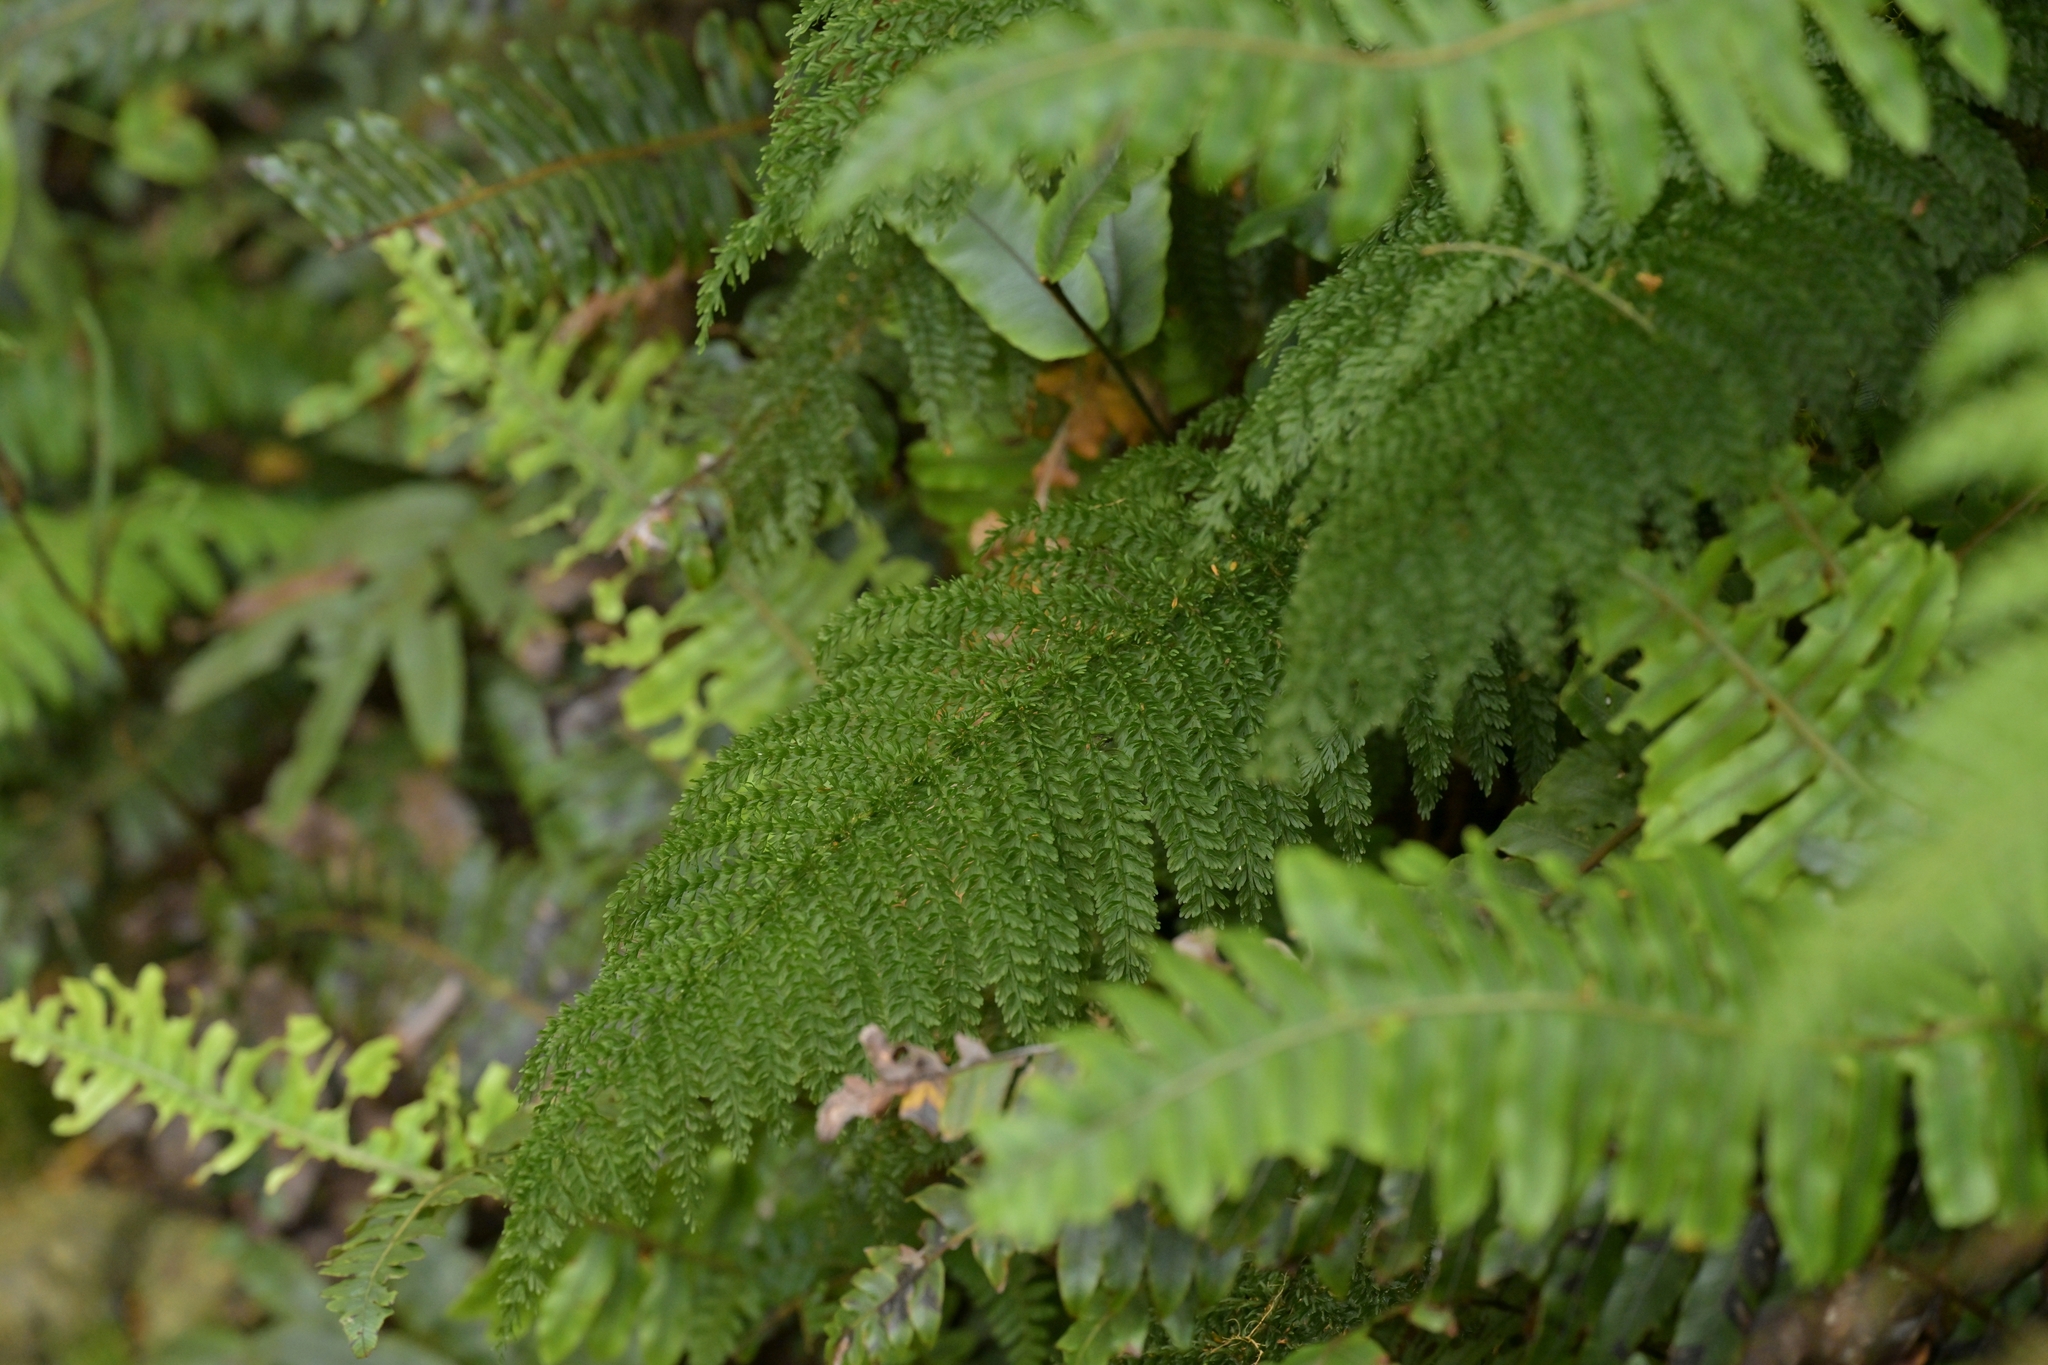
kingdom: Plantae
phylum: Tracheophyta
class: Polypodiopsida
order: Osmundales
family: Osmundaceae
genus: Leptopteris
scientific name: Leptopteris superba
